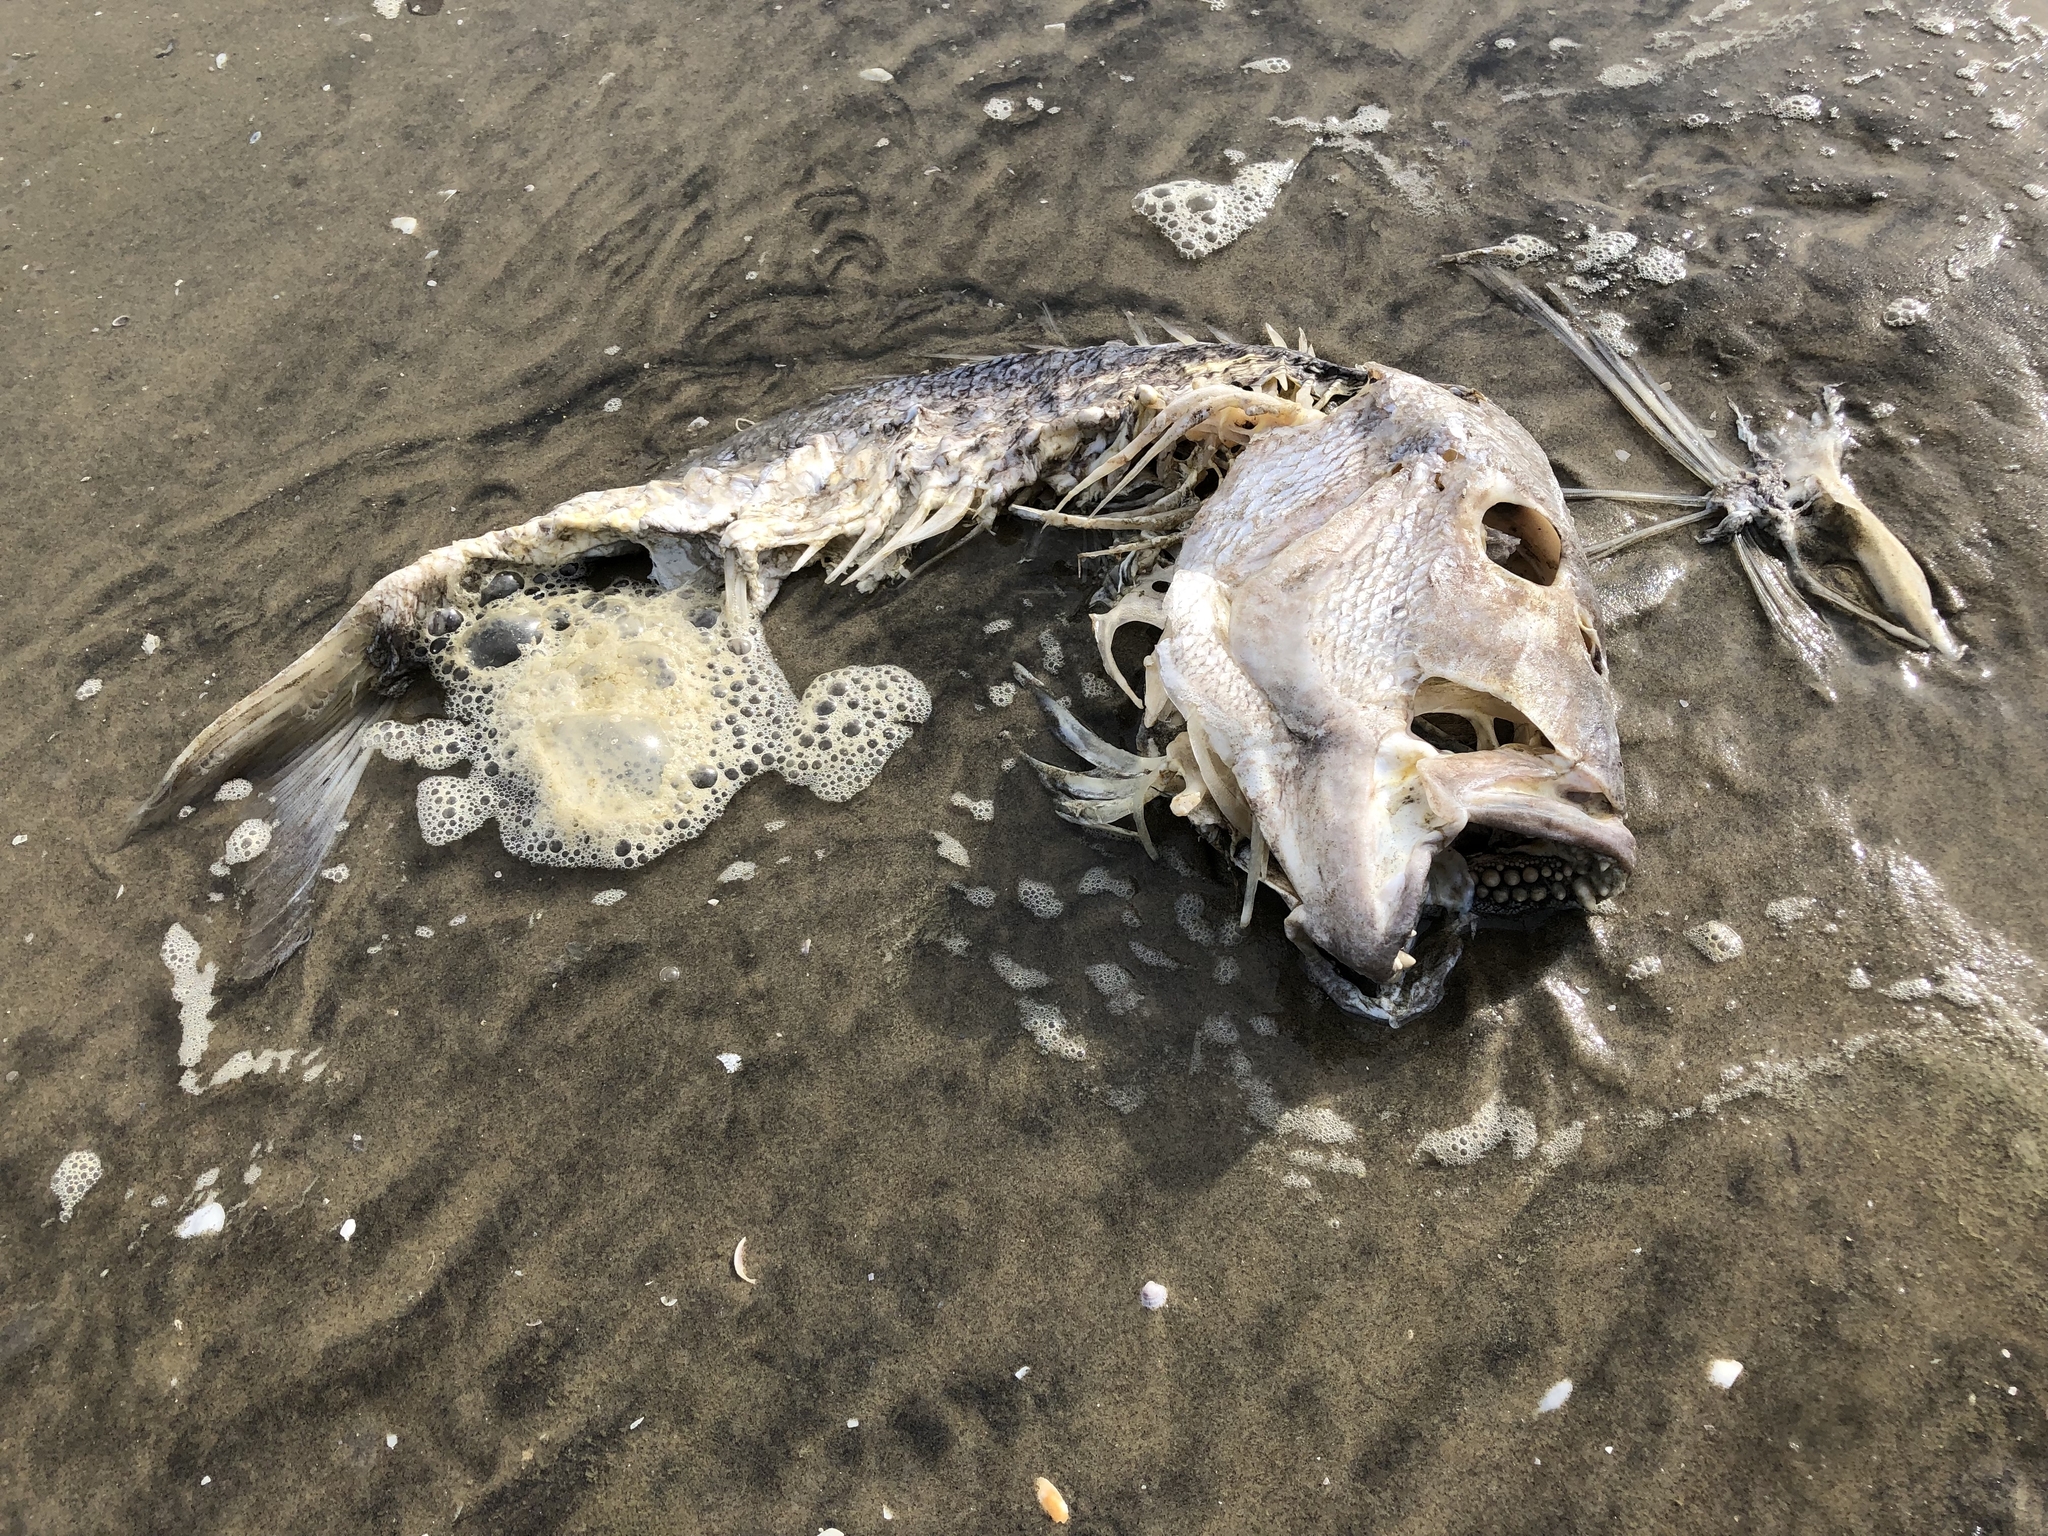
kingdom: Animalia
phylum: Chordata
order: Perciformes
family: Sparidae
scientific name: Sparidae
